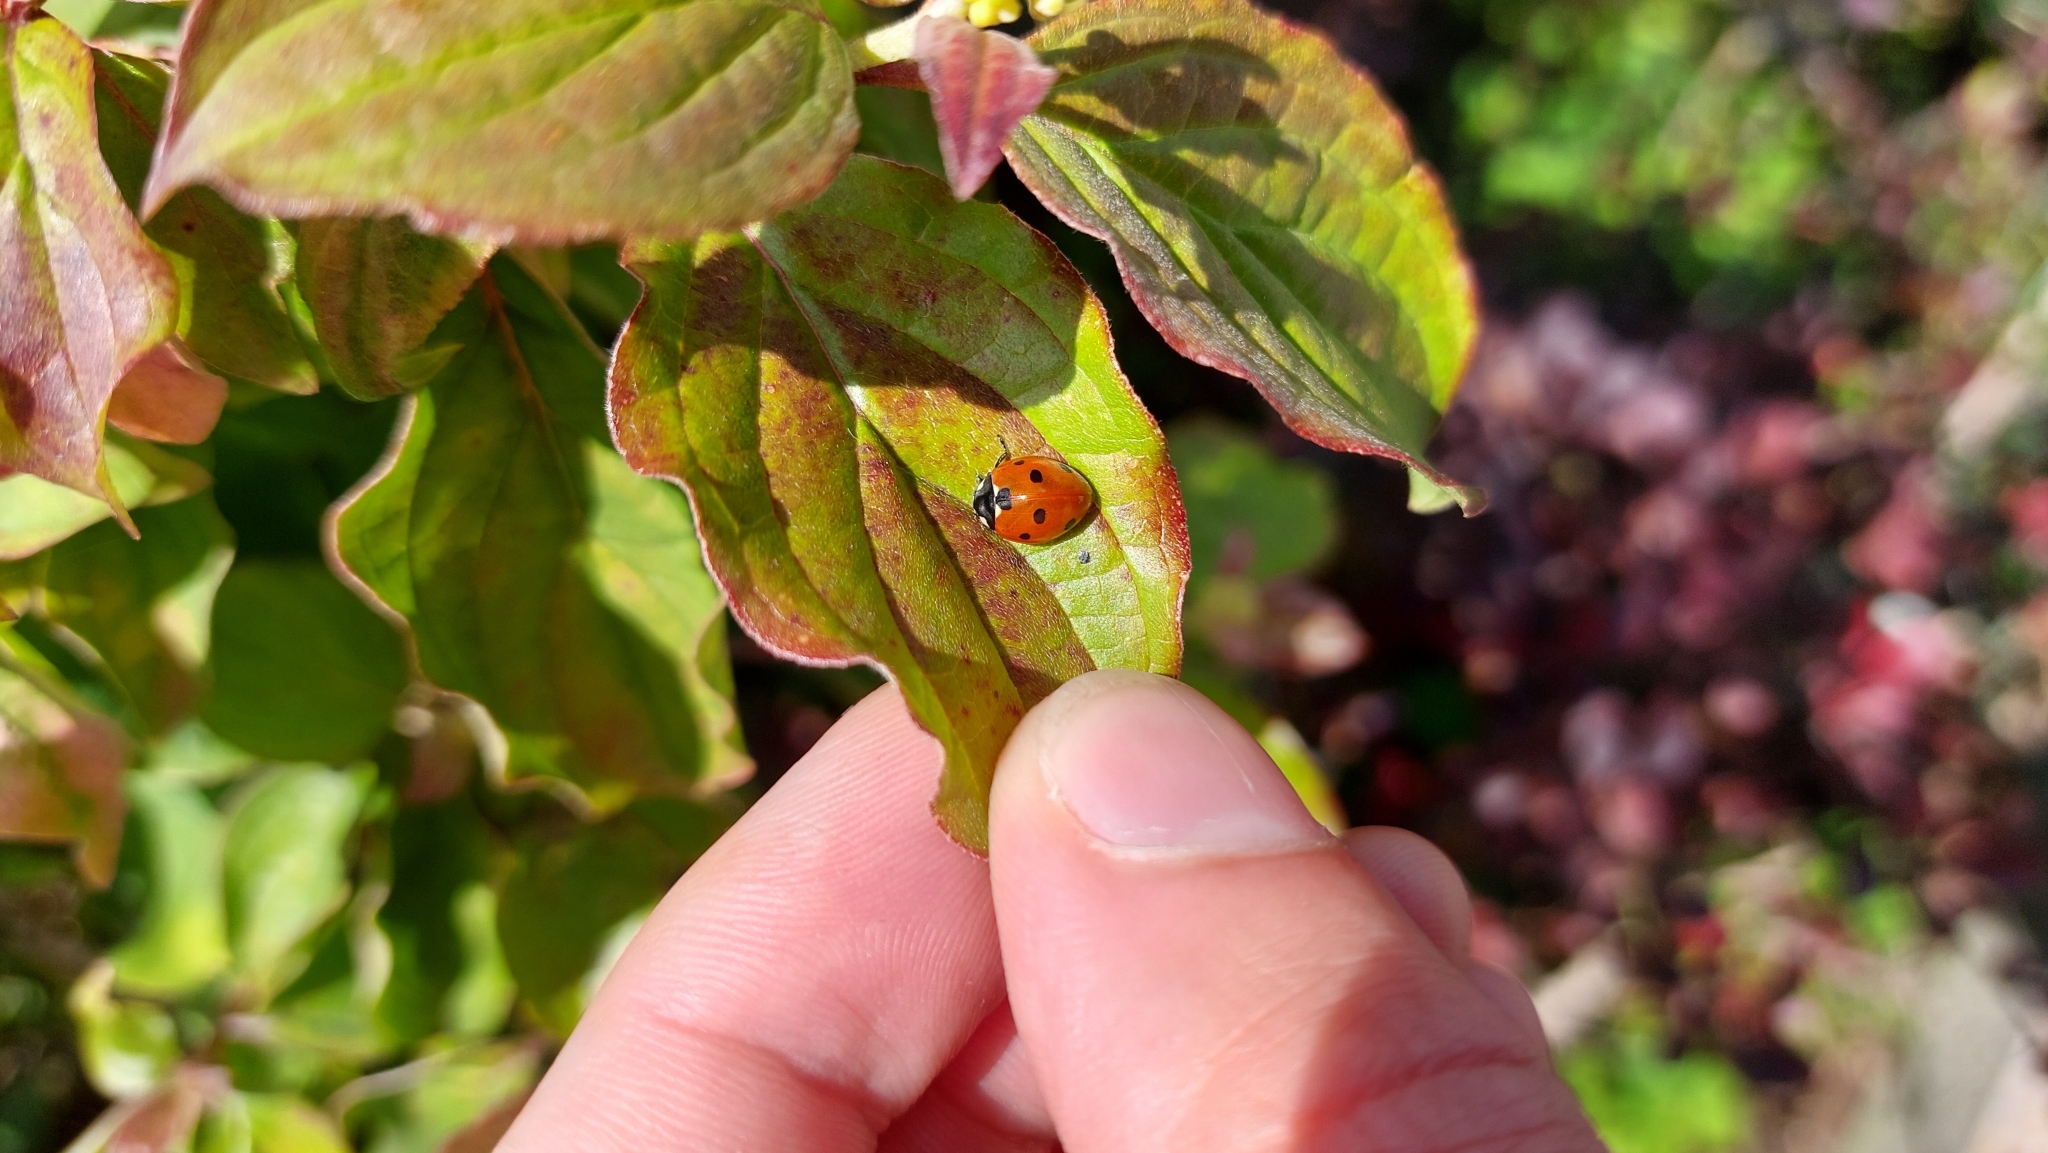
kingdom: Animalia
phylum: Arthropoda
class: Insecta
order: Coleoptera
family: Coccinellidae
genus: Coccinella
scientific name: Coccinella septempunctata
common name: Sevenspotted lady beetle
